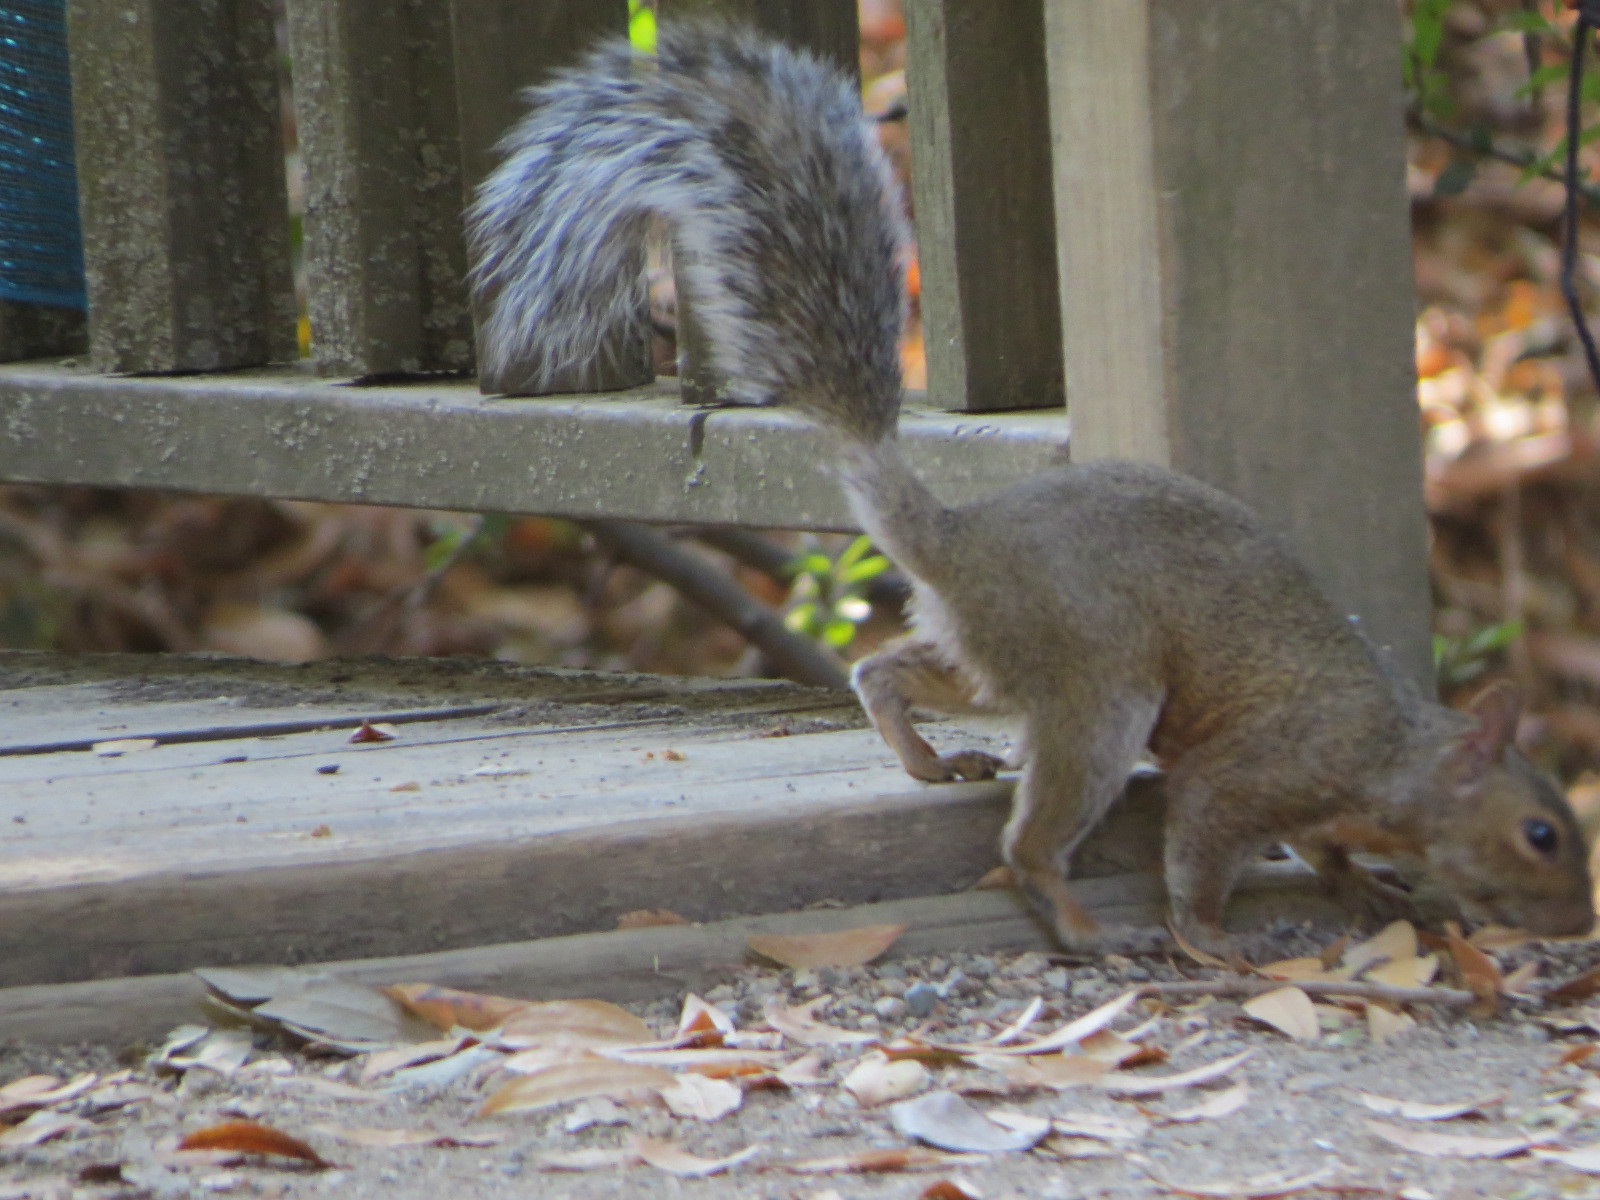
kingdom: Animalia
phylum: Chordata
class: Mammalia
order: Rodentia
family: Sciuridae
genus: Sciurus
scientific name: Sciurus carolinensis
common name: Eastern gray squirrel
